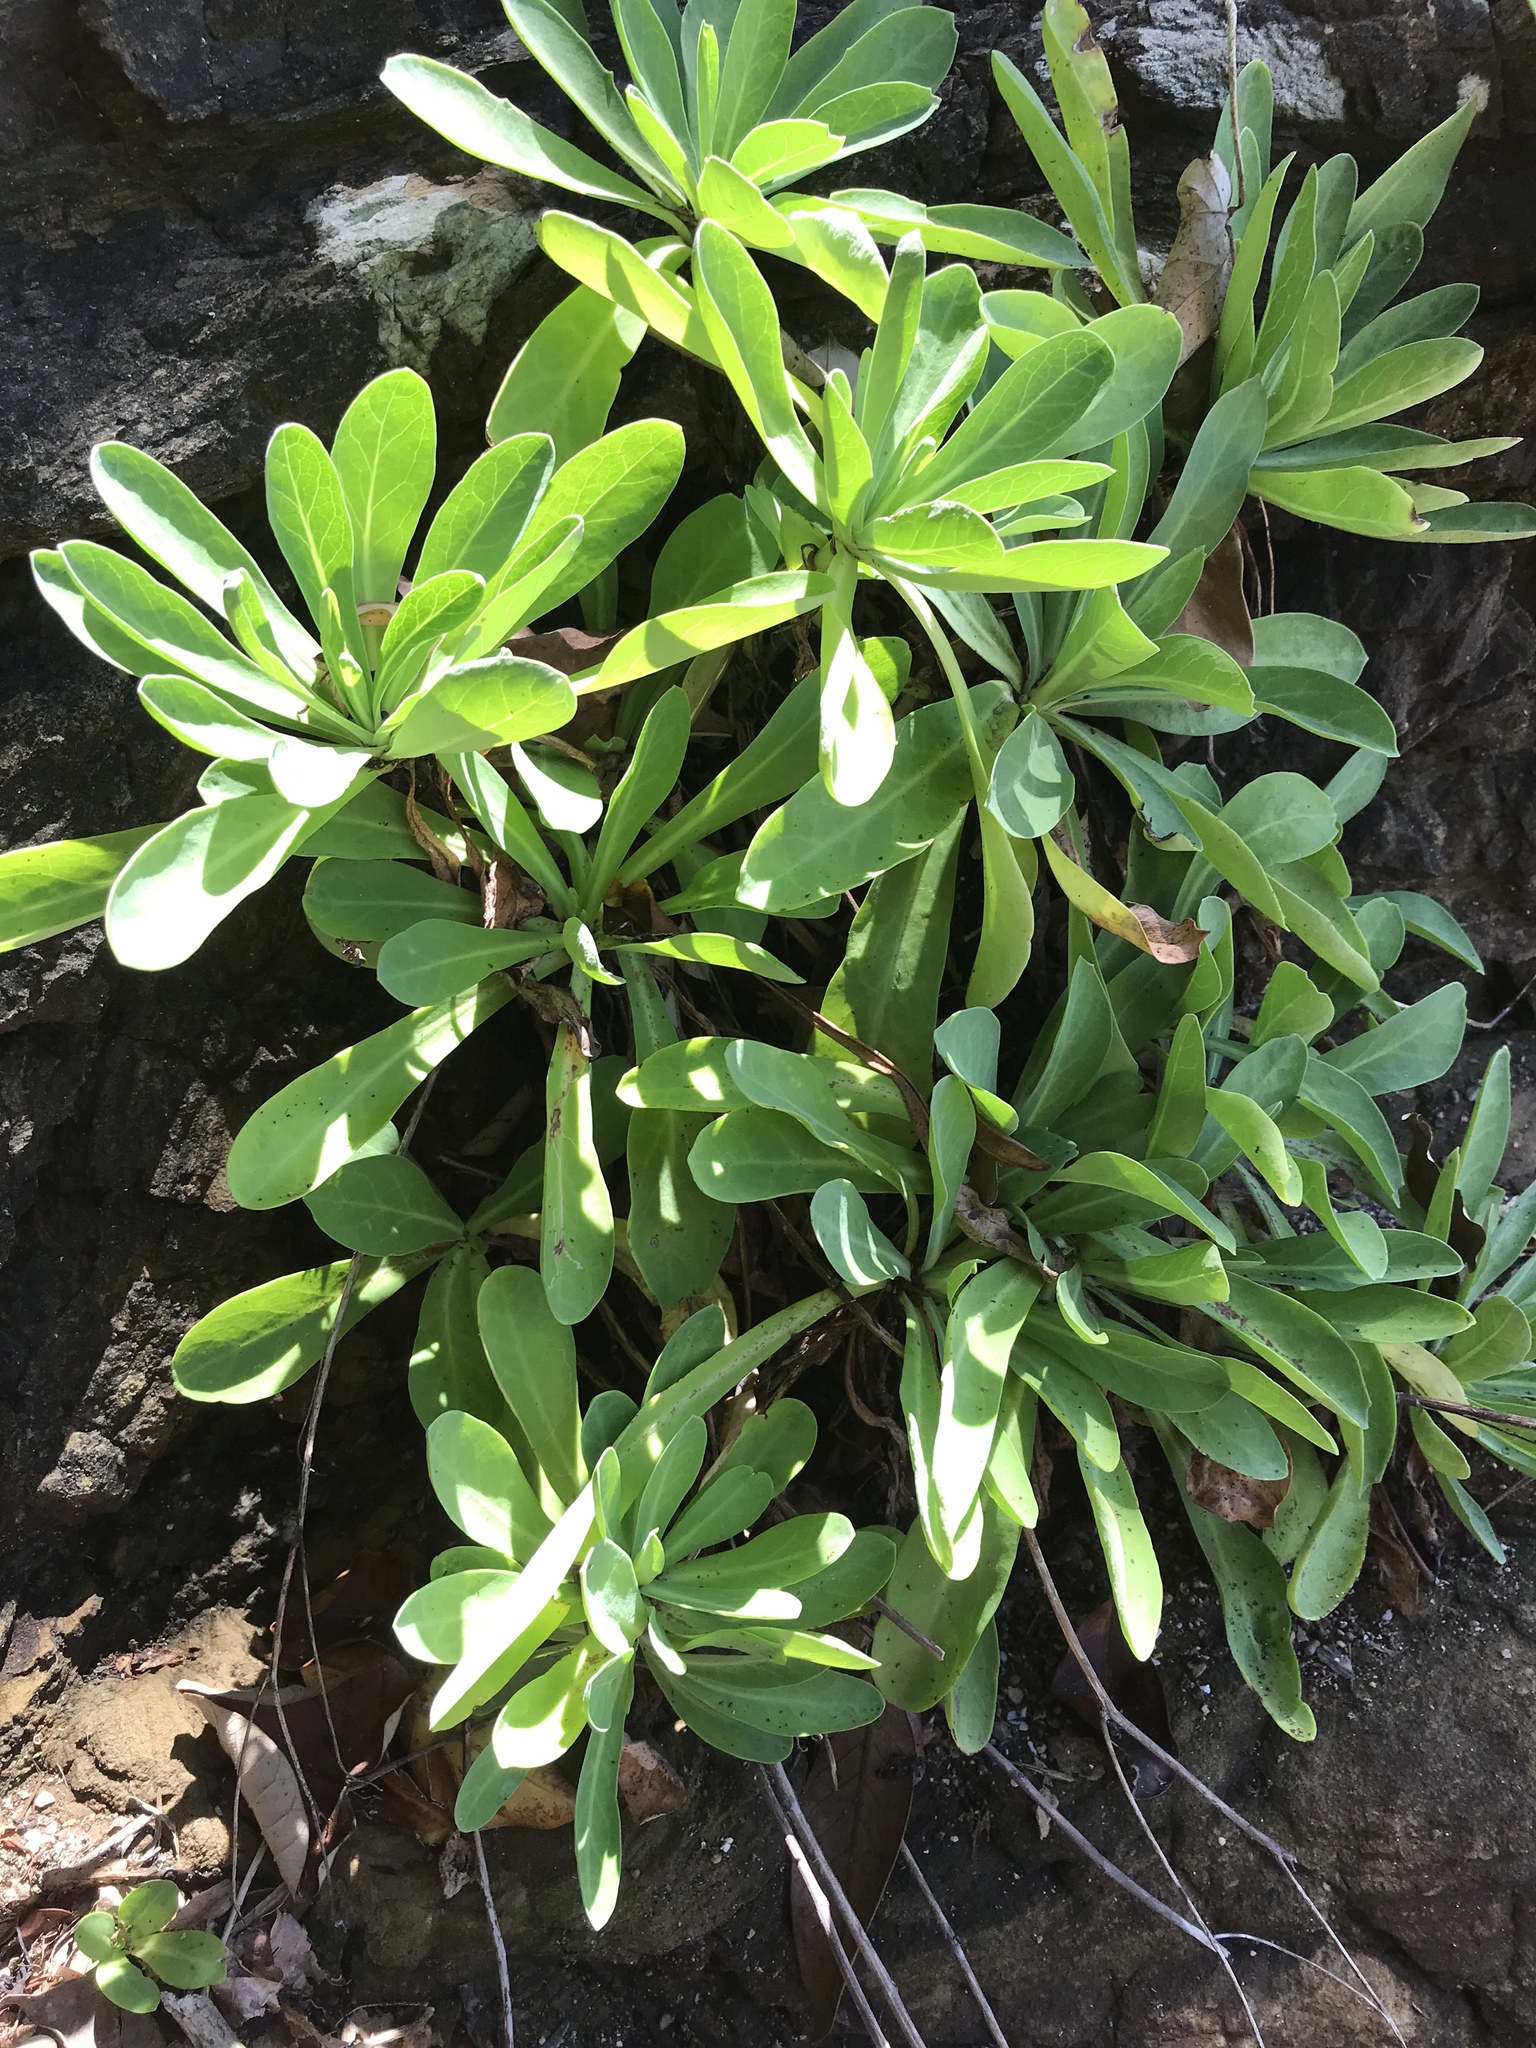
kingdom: Plantae
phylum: Tracheophyta
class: Magnoliopsida
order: Asterales
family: Asteraceae
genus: Crepidiastrum
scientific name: Crepidiastrum lanceolatum
